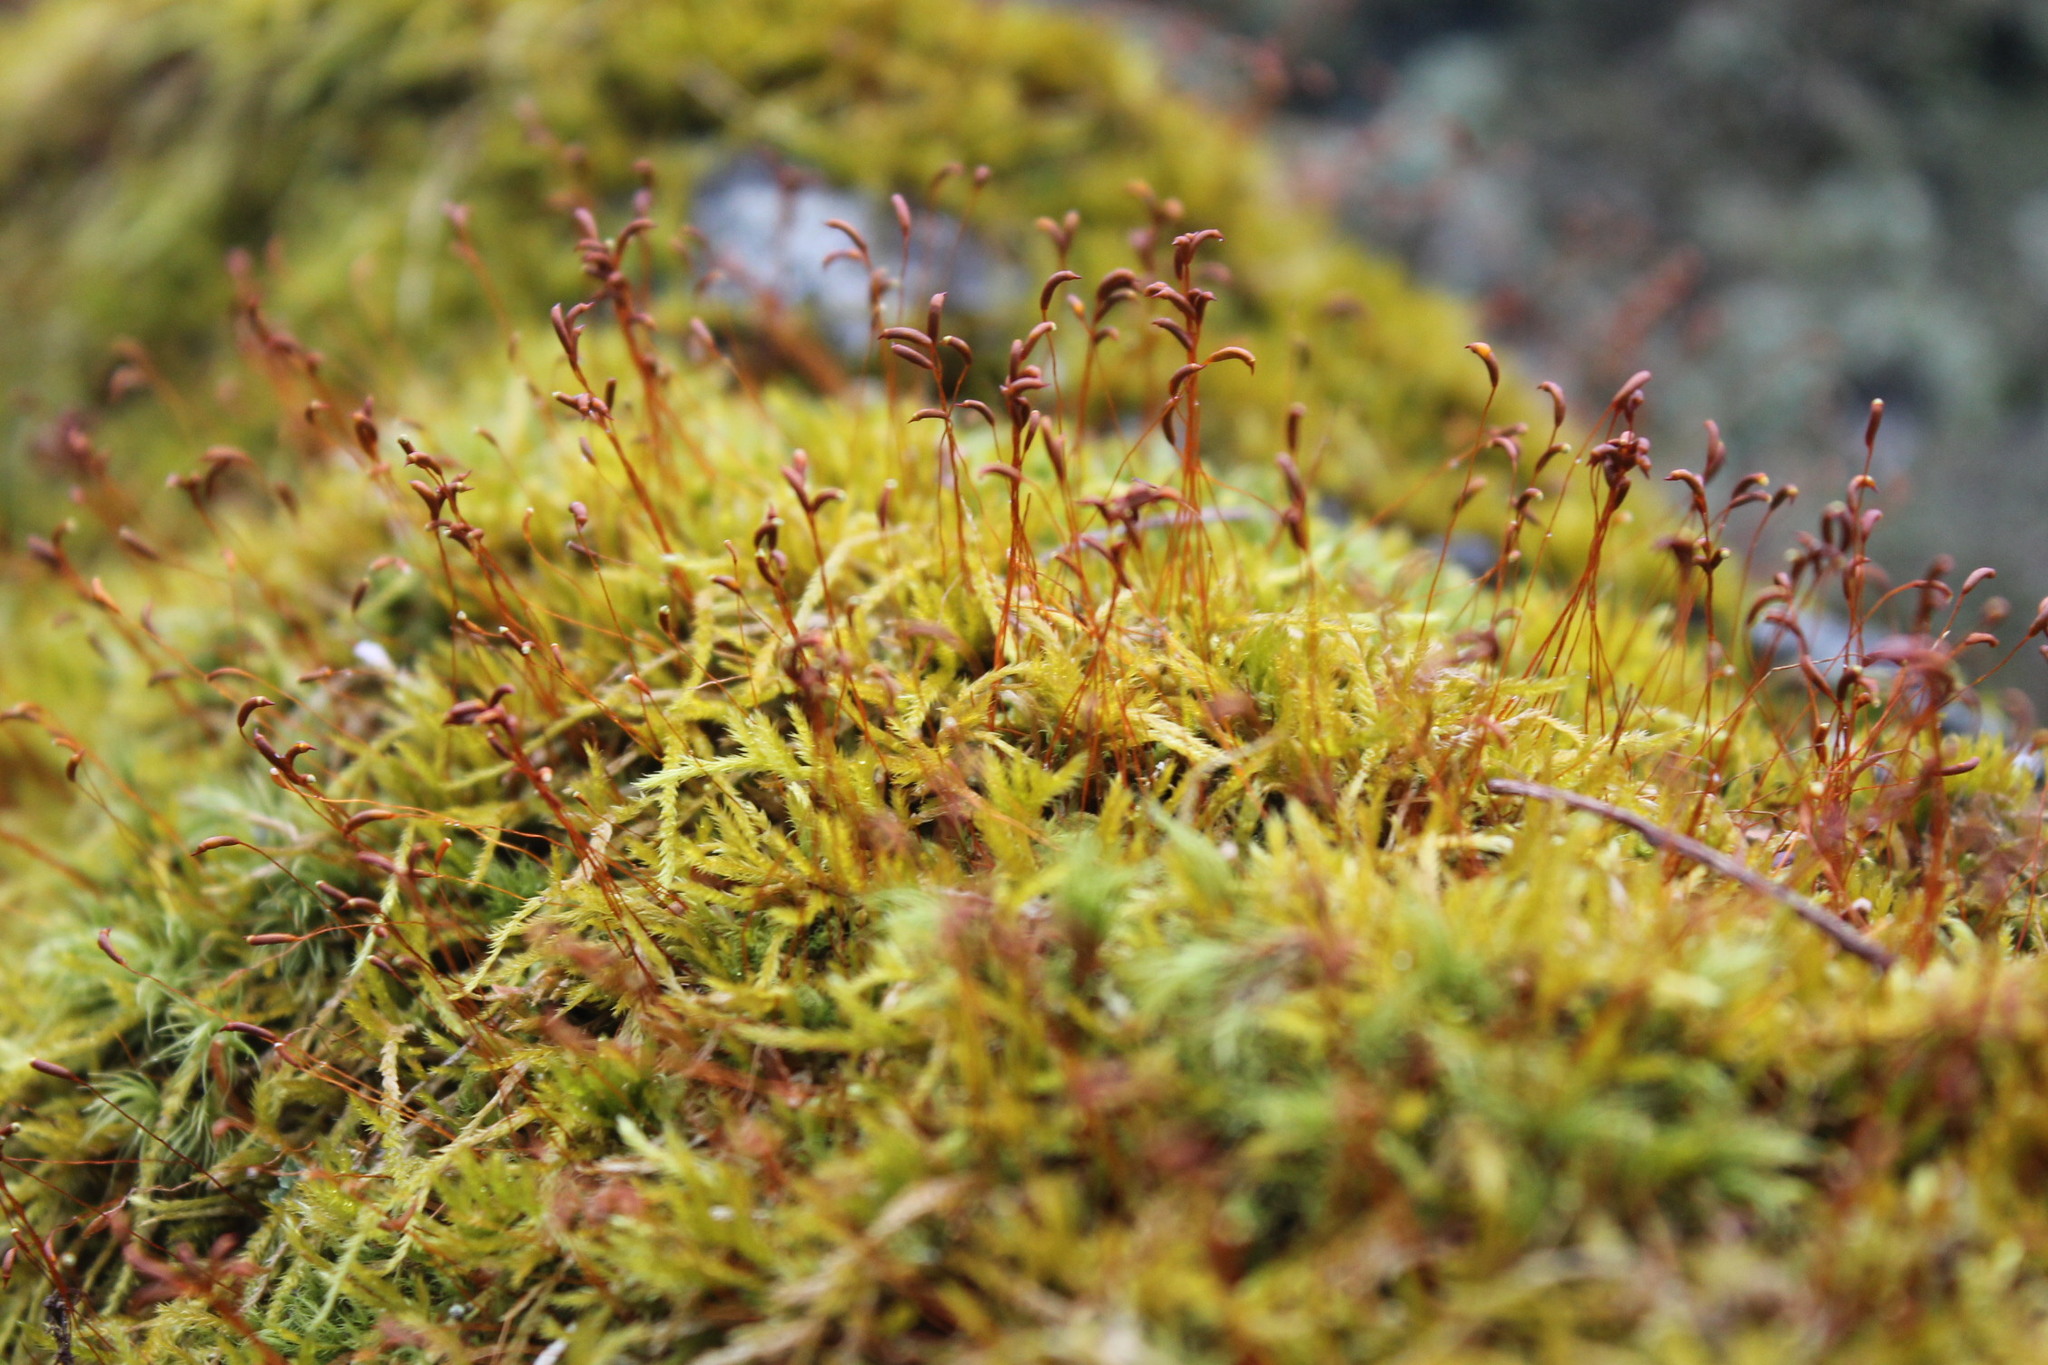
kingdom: Plantae
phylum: Bryophyta
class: Bryopsida
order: Hypnales
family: Callicladiaceae
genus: Callicladium
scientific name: Callicladium haldanianum
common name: Beautiful branch moss
